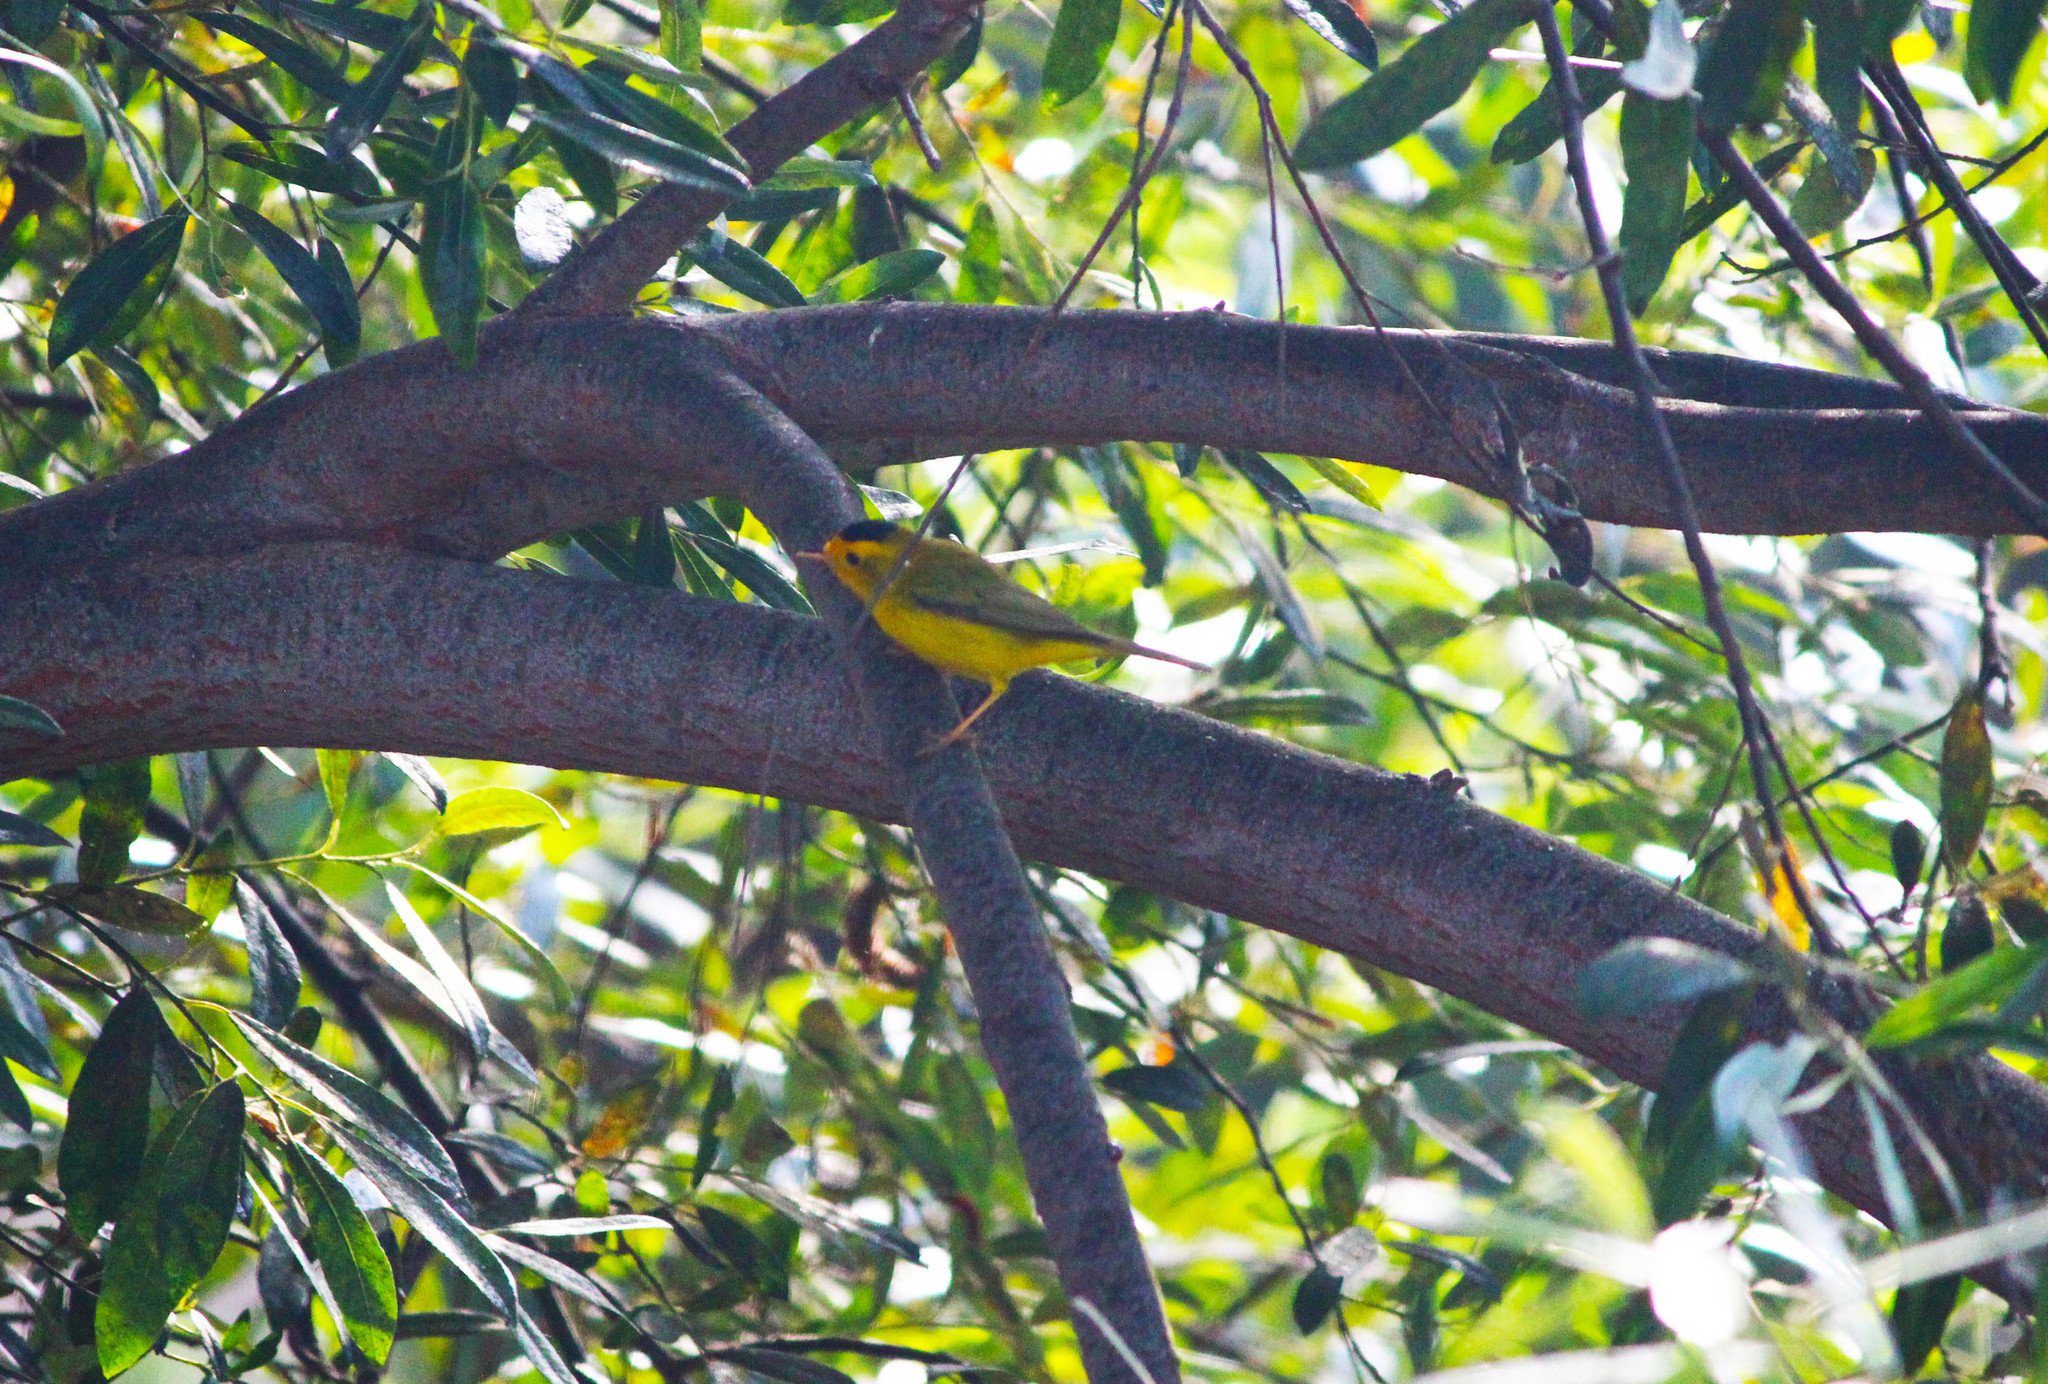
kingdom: Animalia
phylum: Chordata
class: Aves
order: Passeriformes
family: Parulidae
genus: Cardellina
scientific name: Cardellina pusilla
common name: Wilson's warbler
